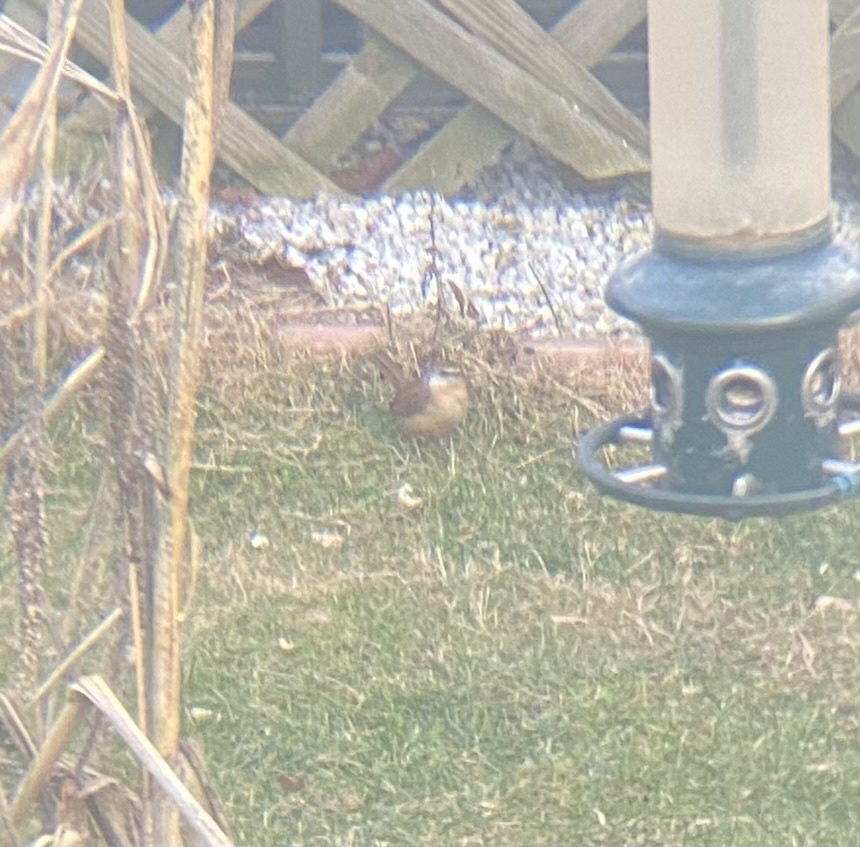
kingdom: Animalia
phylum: Chordata
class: Aves
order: Passeriformes
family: Troglodytidae
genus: Thryothorus
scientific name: Thryothorus ludovicianus
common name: Carolina wren
